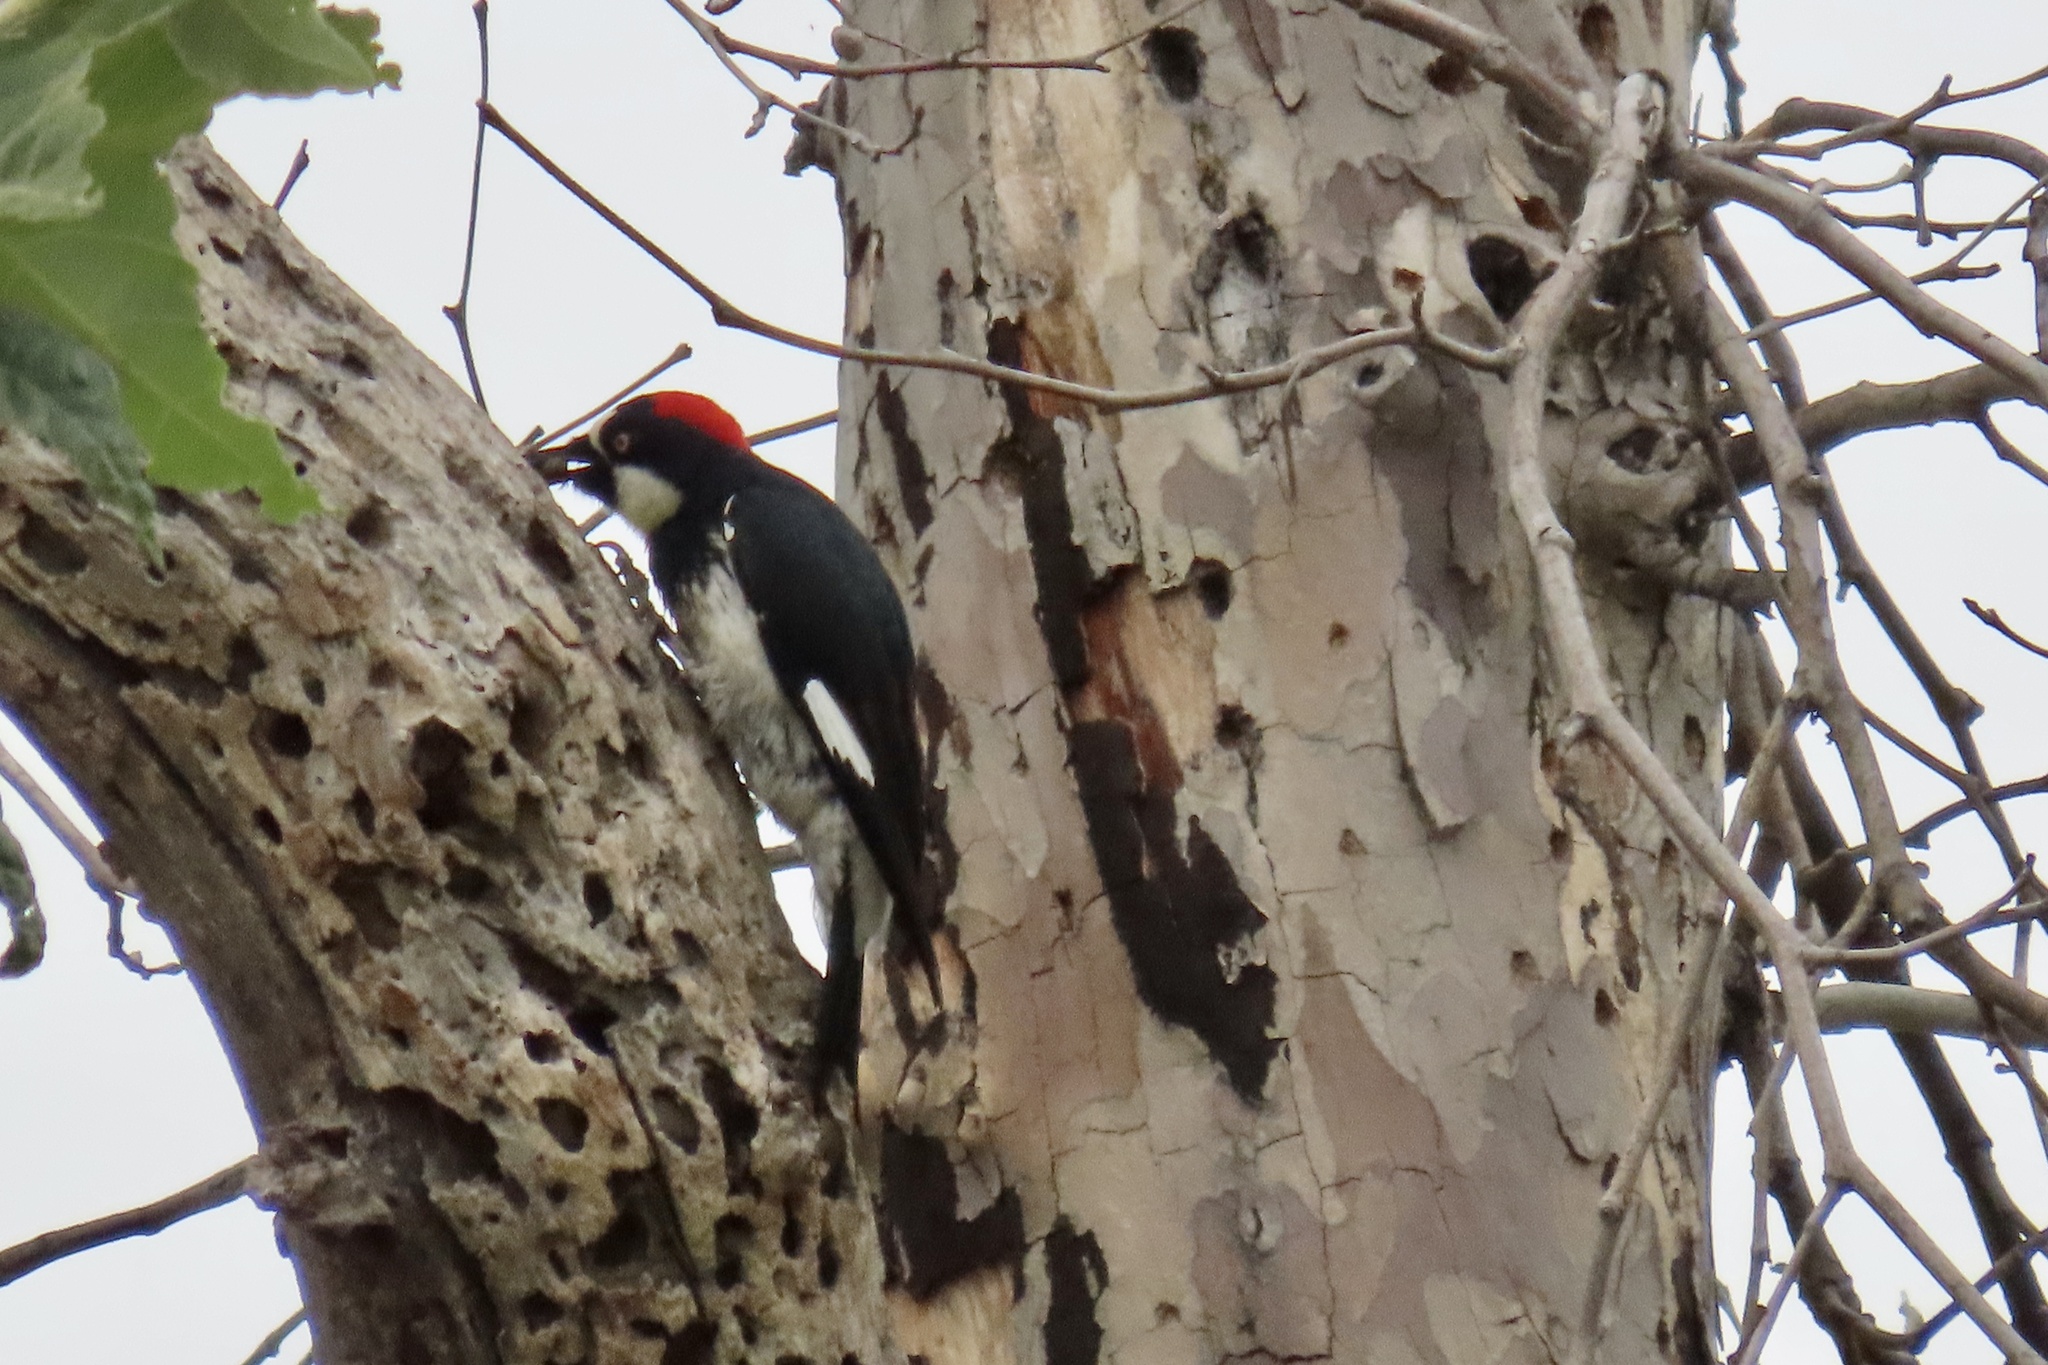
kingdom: Animalia
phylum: Chordata
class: Aves
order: Piciformes
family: Picidae
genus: Melanerpes
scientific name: Melanerpes formicivorus
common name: Acorn woodpecker
